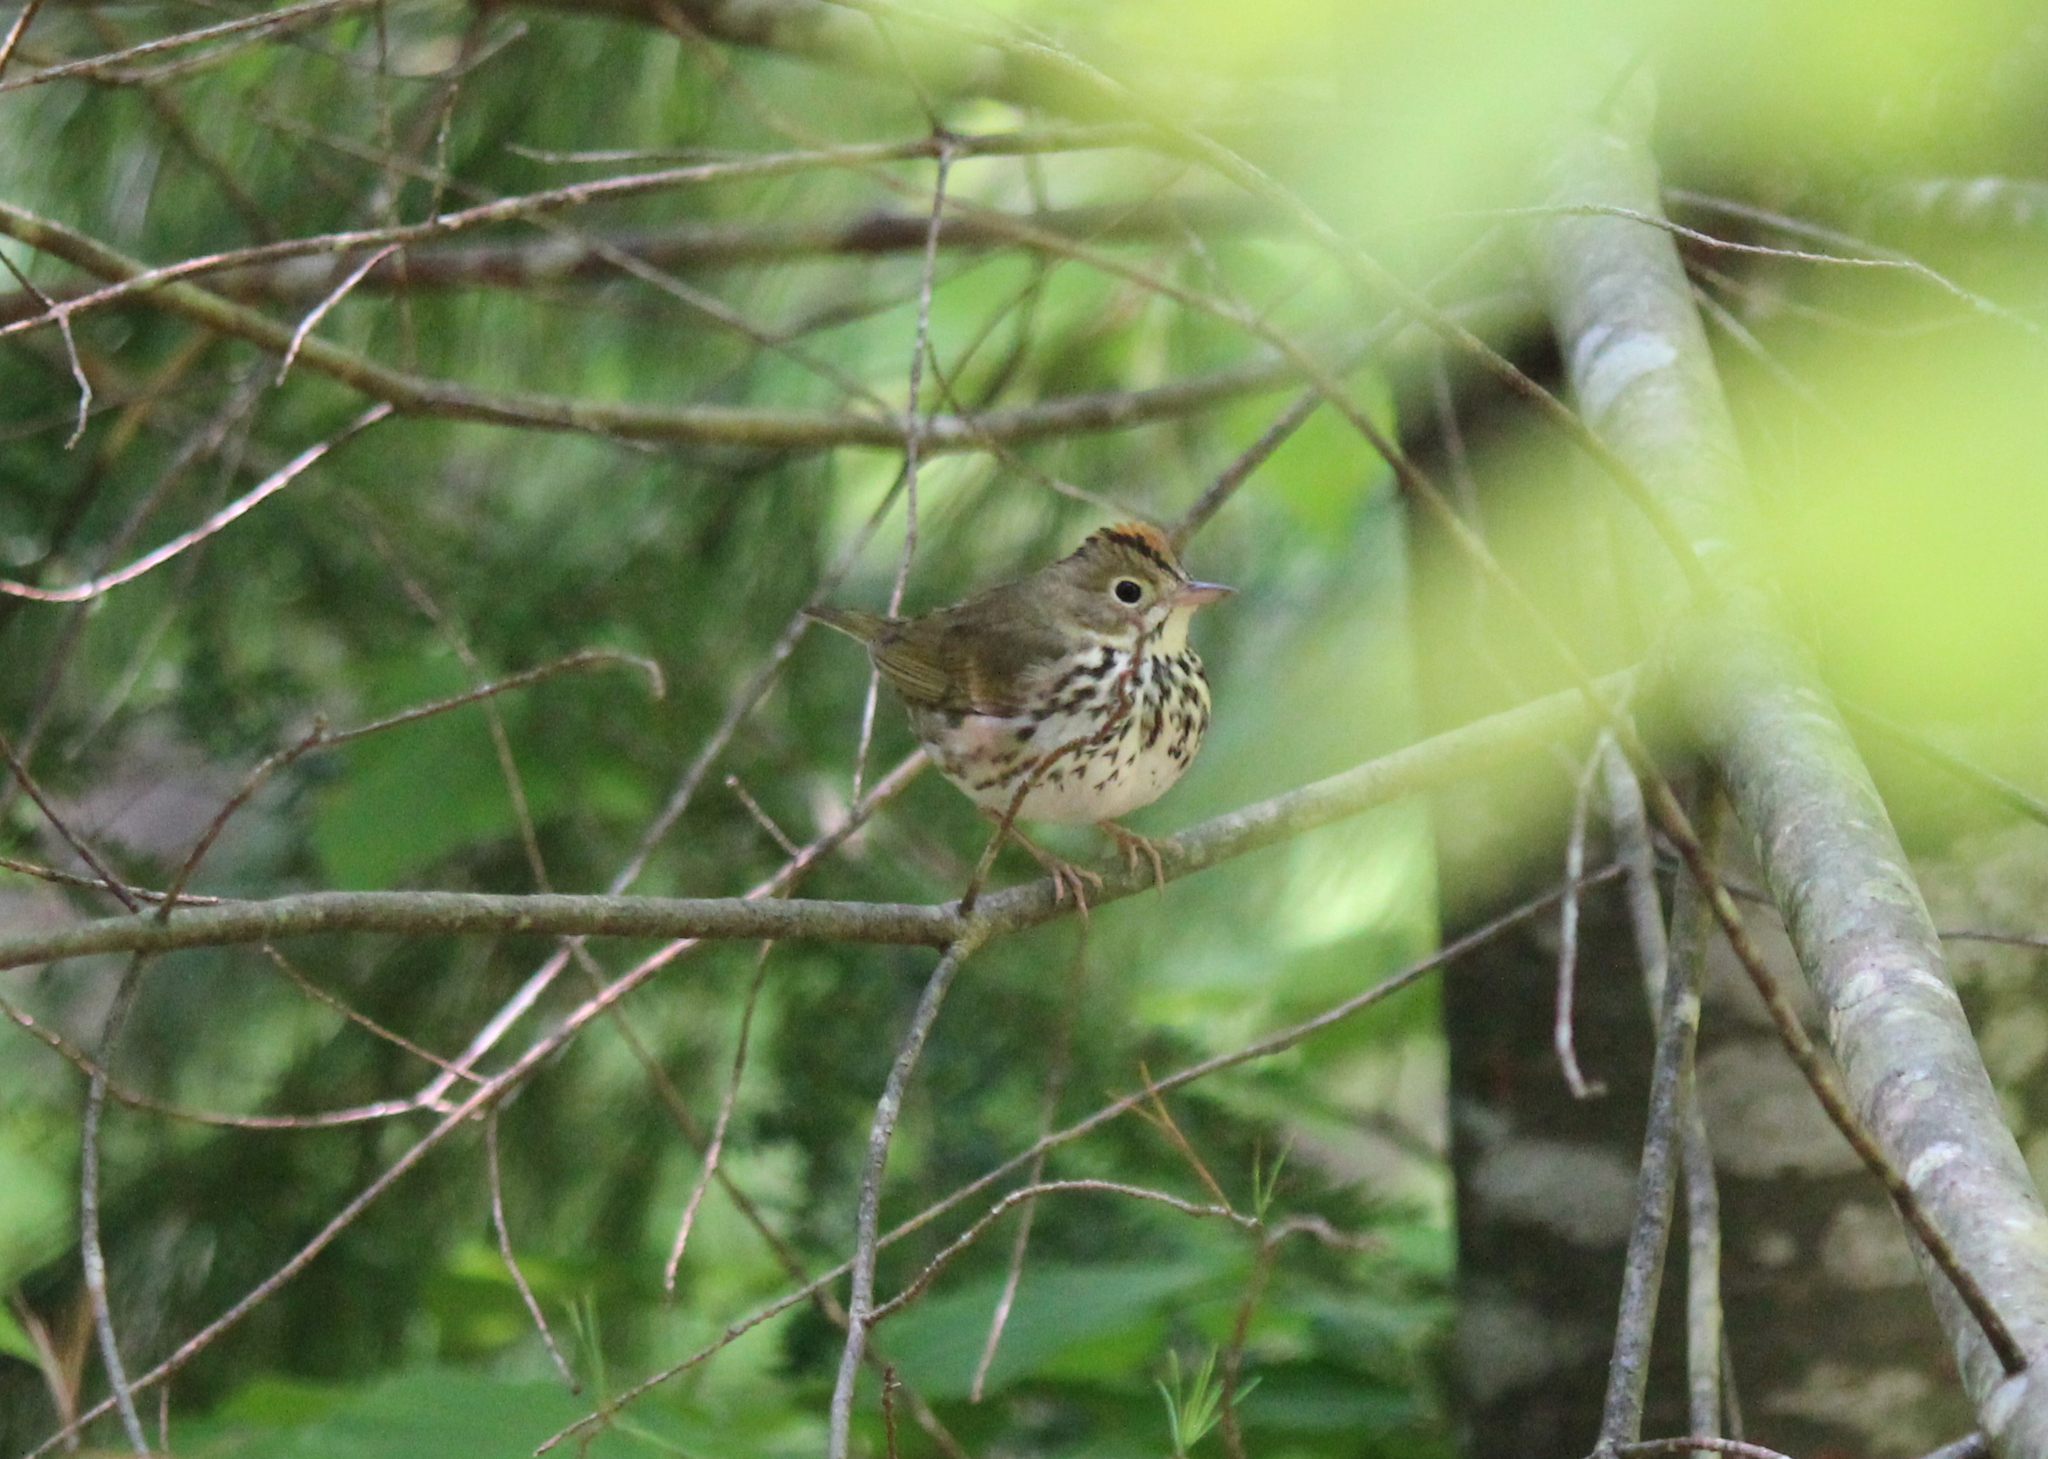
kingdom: Animalia
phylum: Chordata
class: Aves
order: Passeriformes
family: Parulidae
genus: Seiurus
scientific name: Seiurus aurocapilla
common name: Ovenbird
